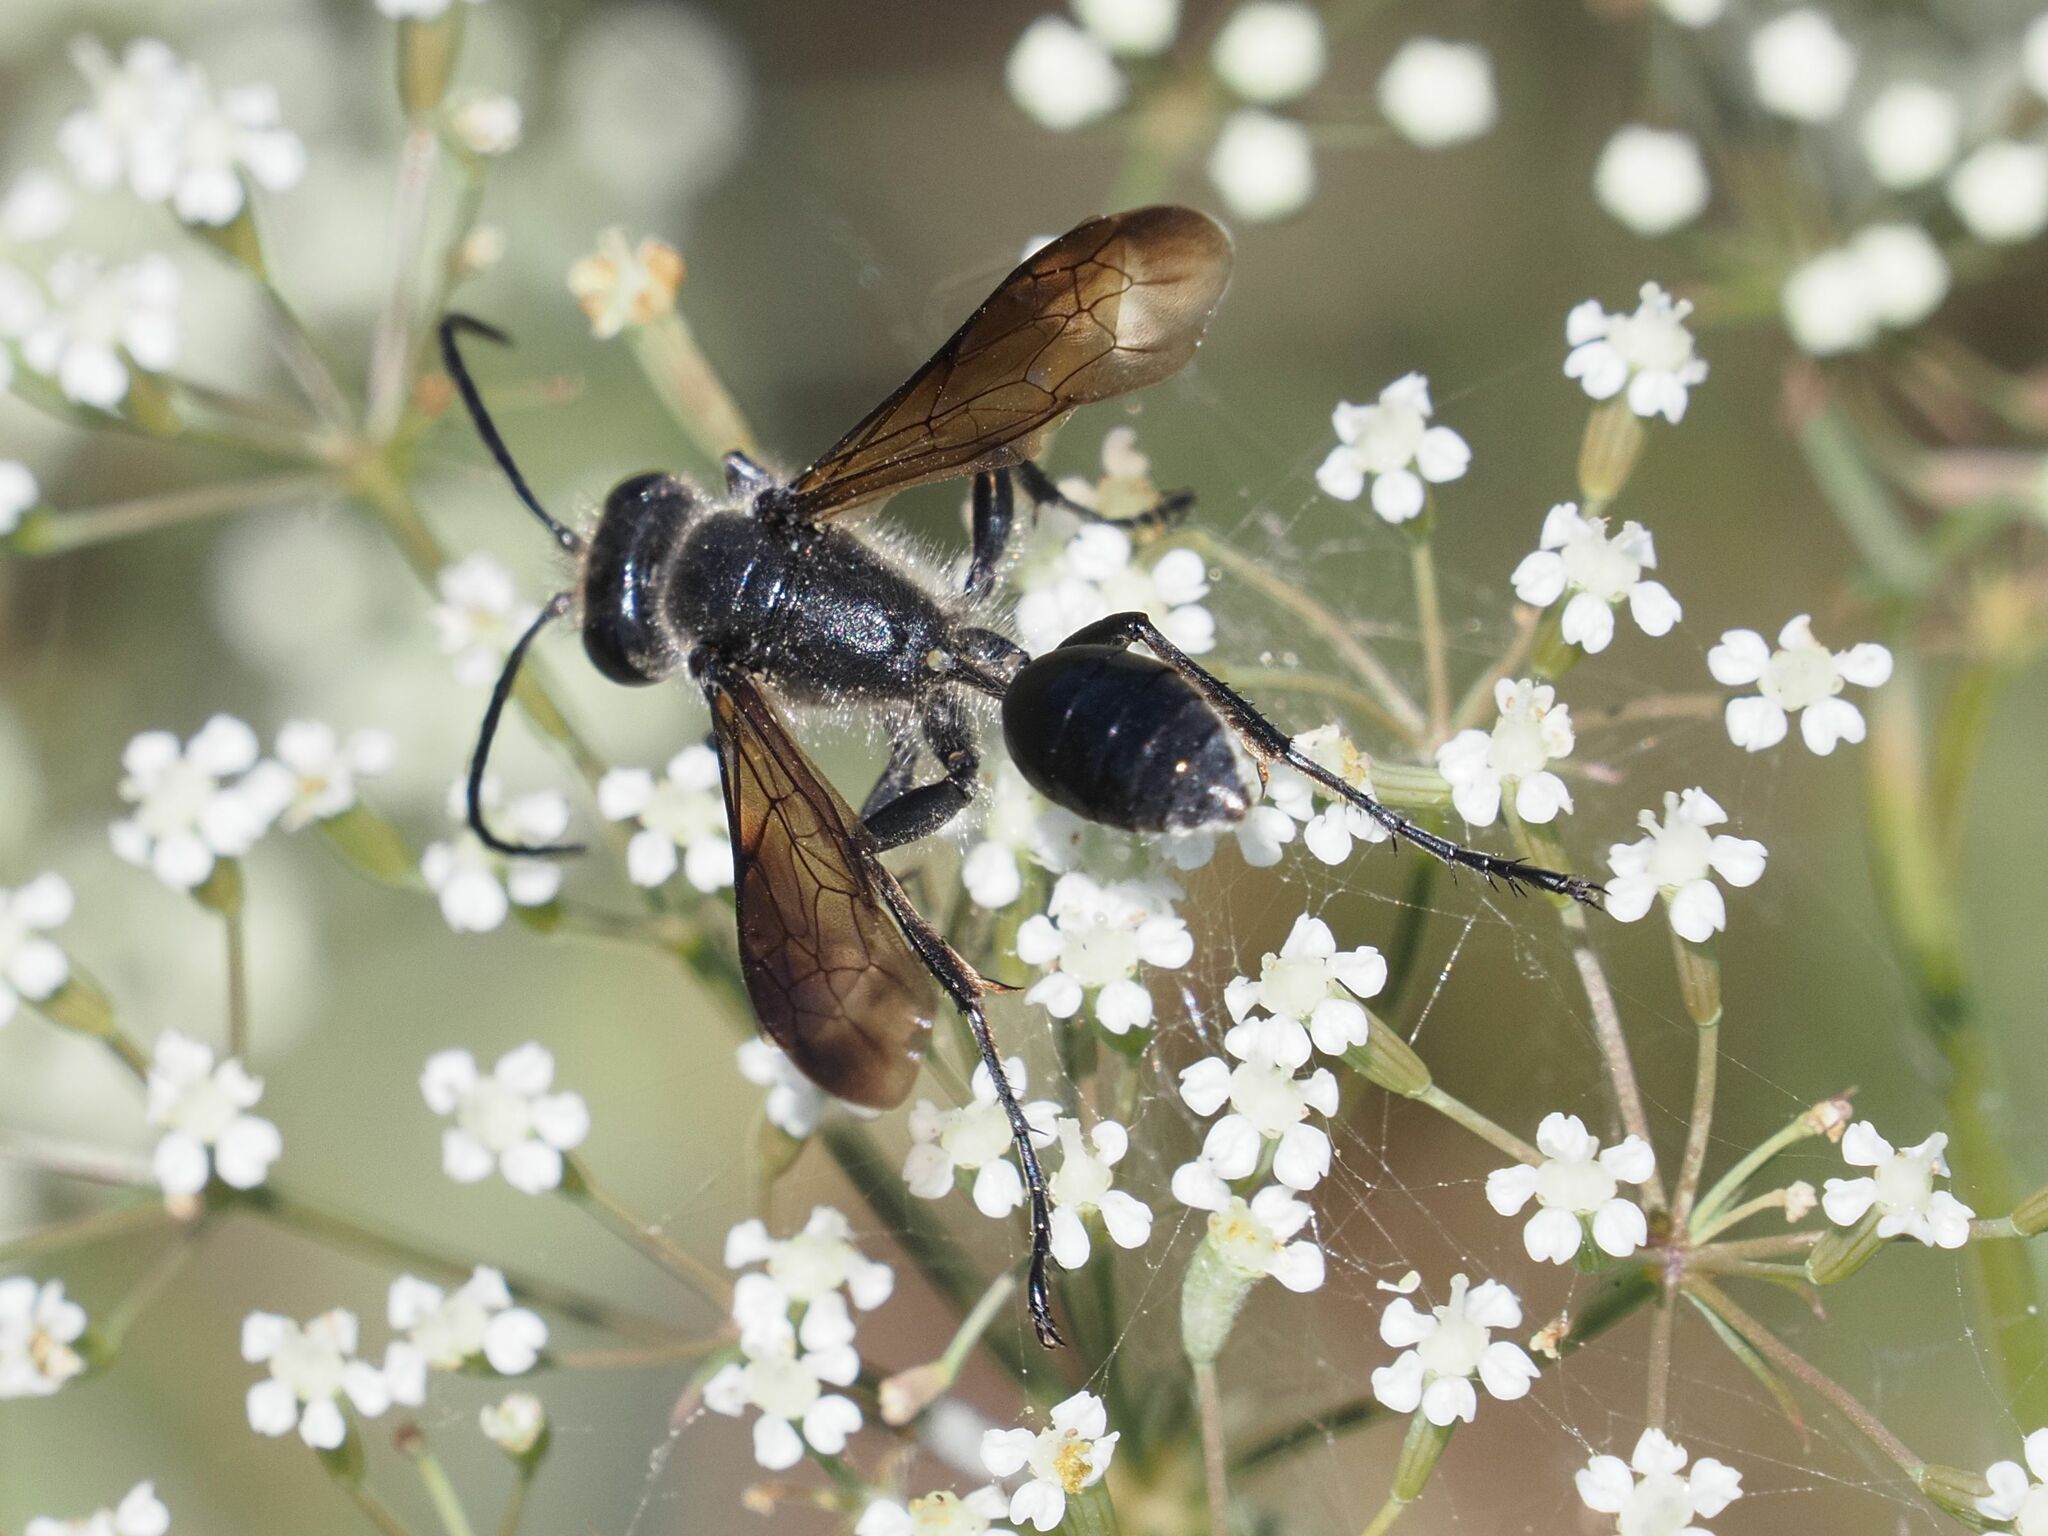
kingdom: Animalia
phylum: Arthropoda
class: Insecta
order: Hymenoptera
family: Sphecidae
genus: Isodontia
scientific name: Isodontia mexicana
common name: Mud dauber
